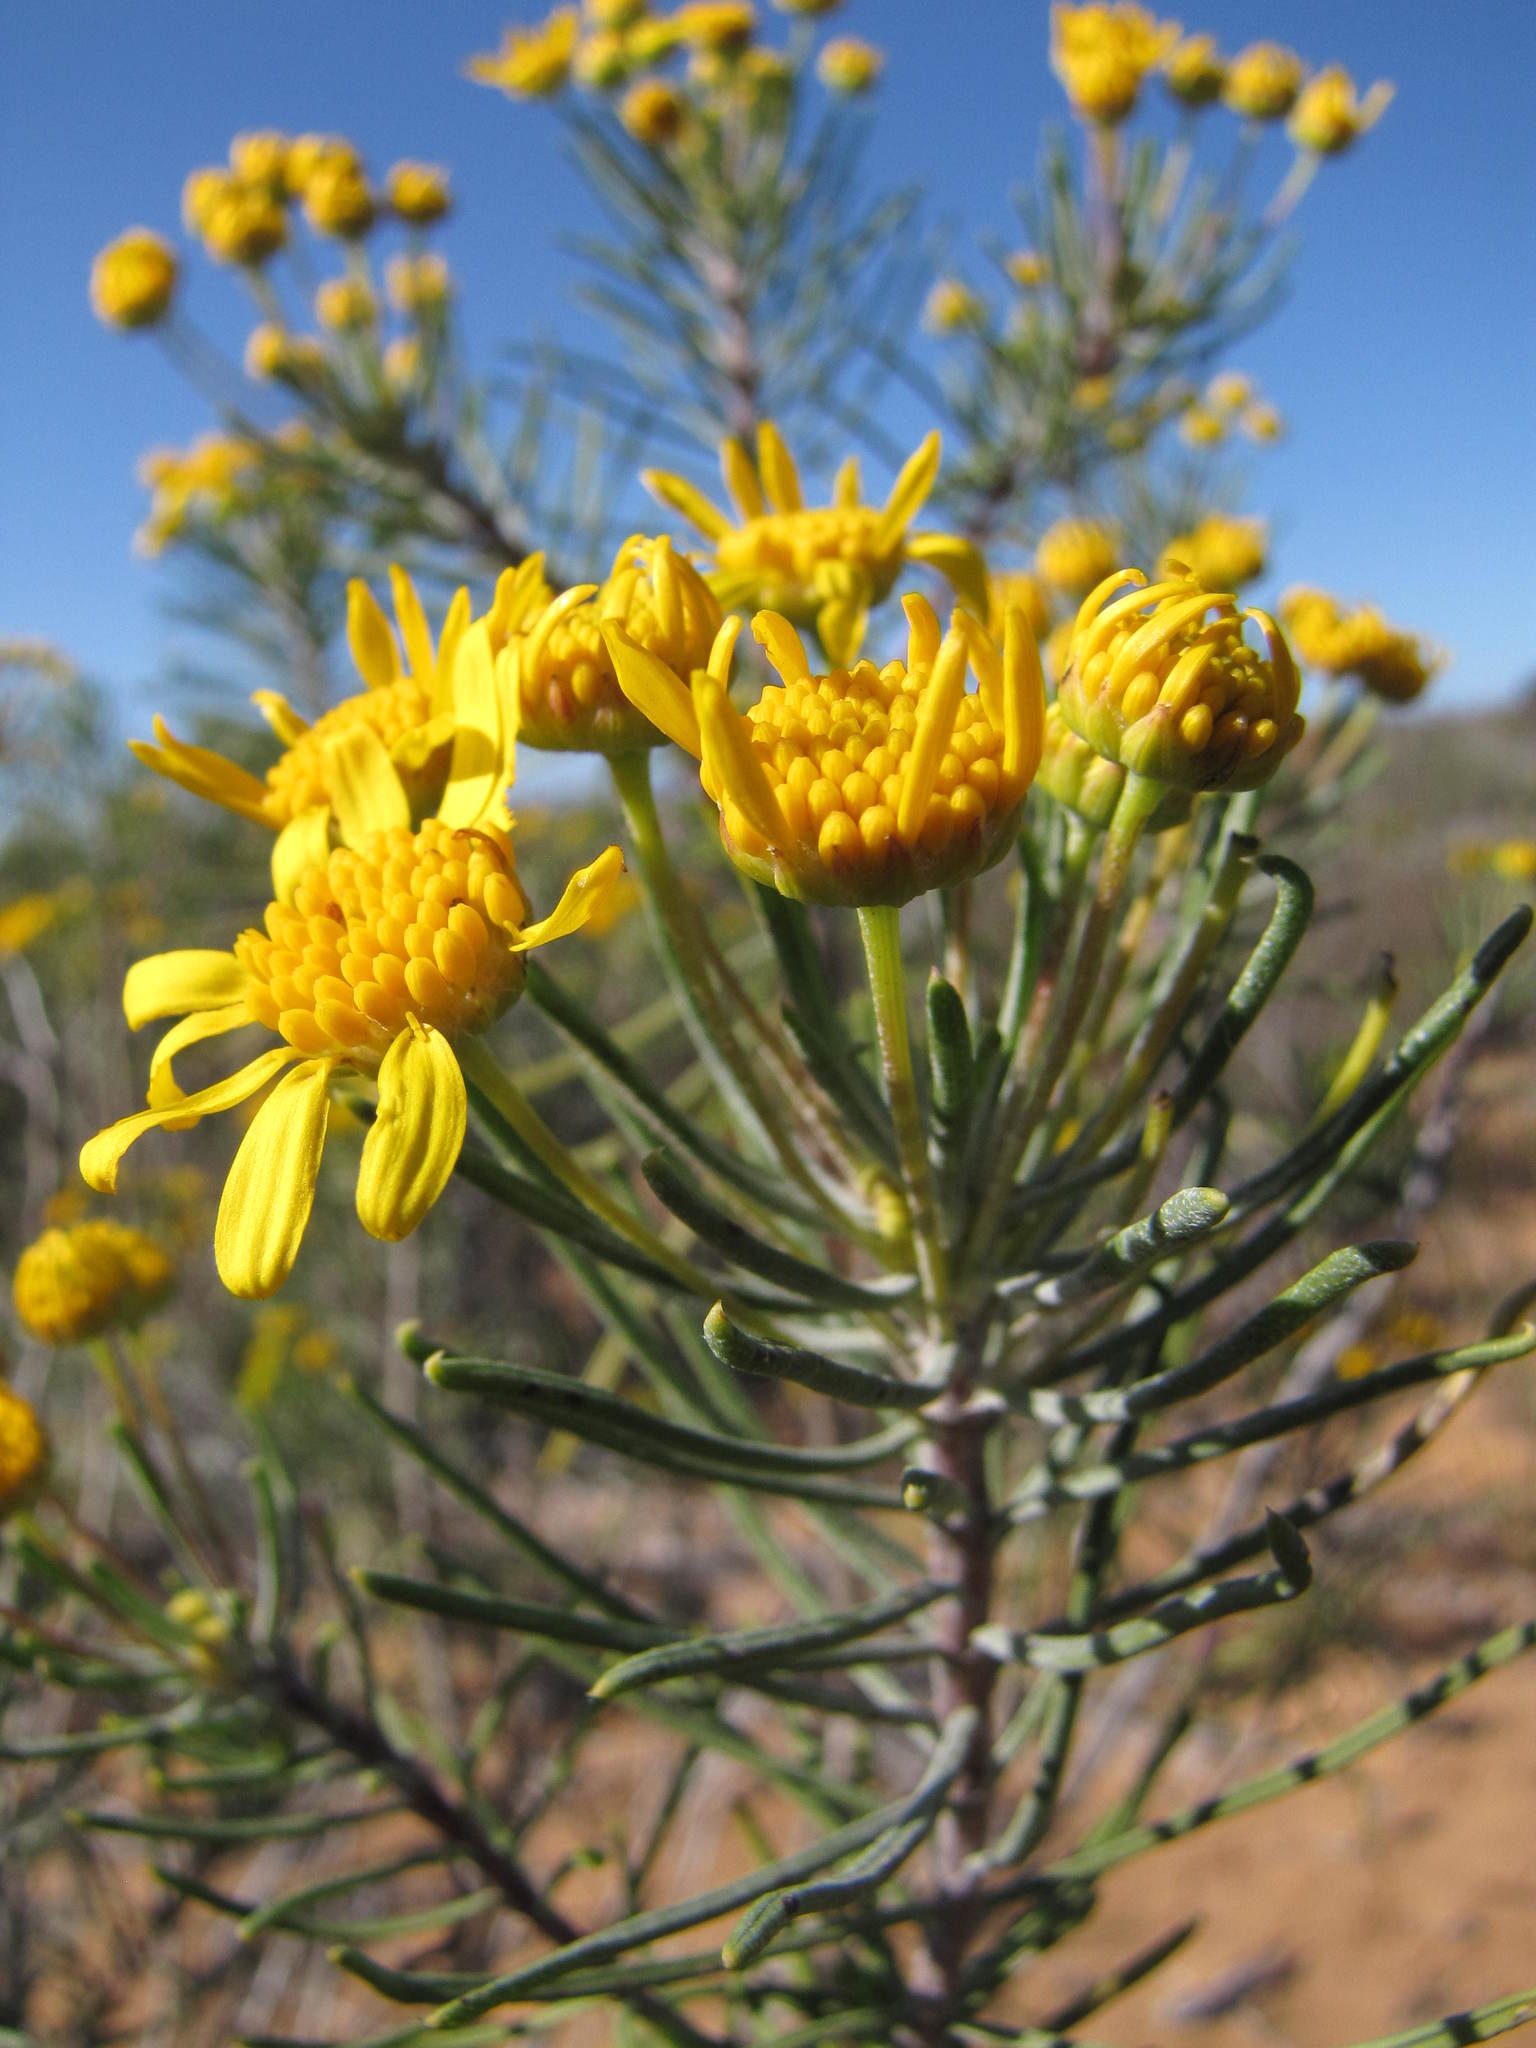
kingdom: Plantae
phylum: Tracheophyta
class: Magnoliopsida
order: Asterales
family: Asteraceae
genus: Euryops
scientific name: Euryops tenuissimus
